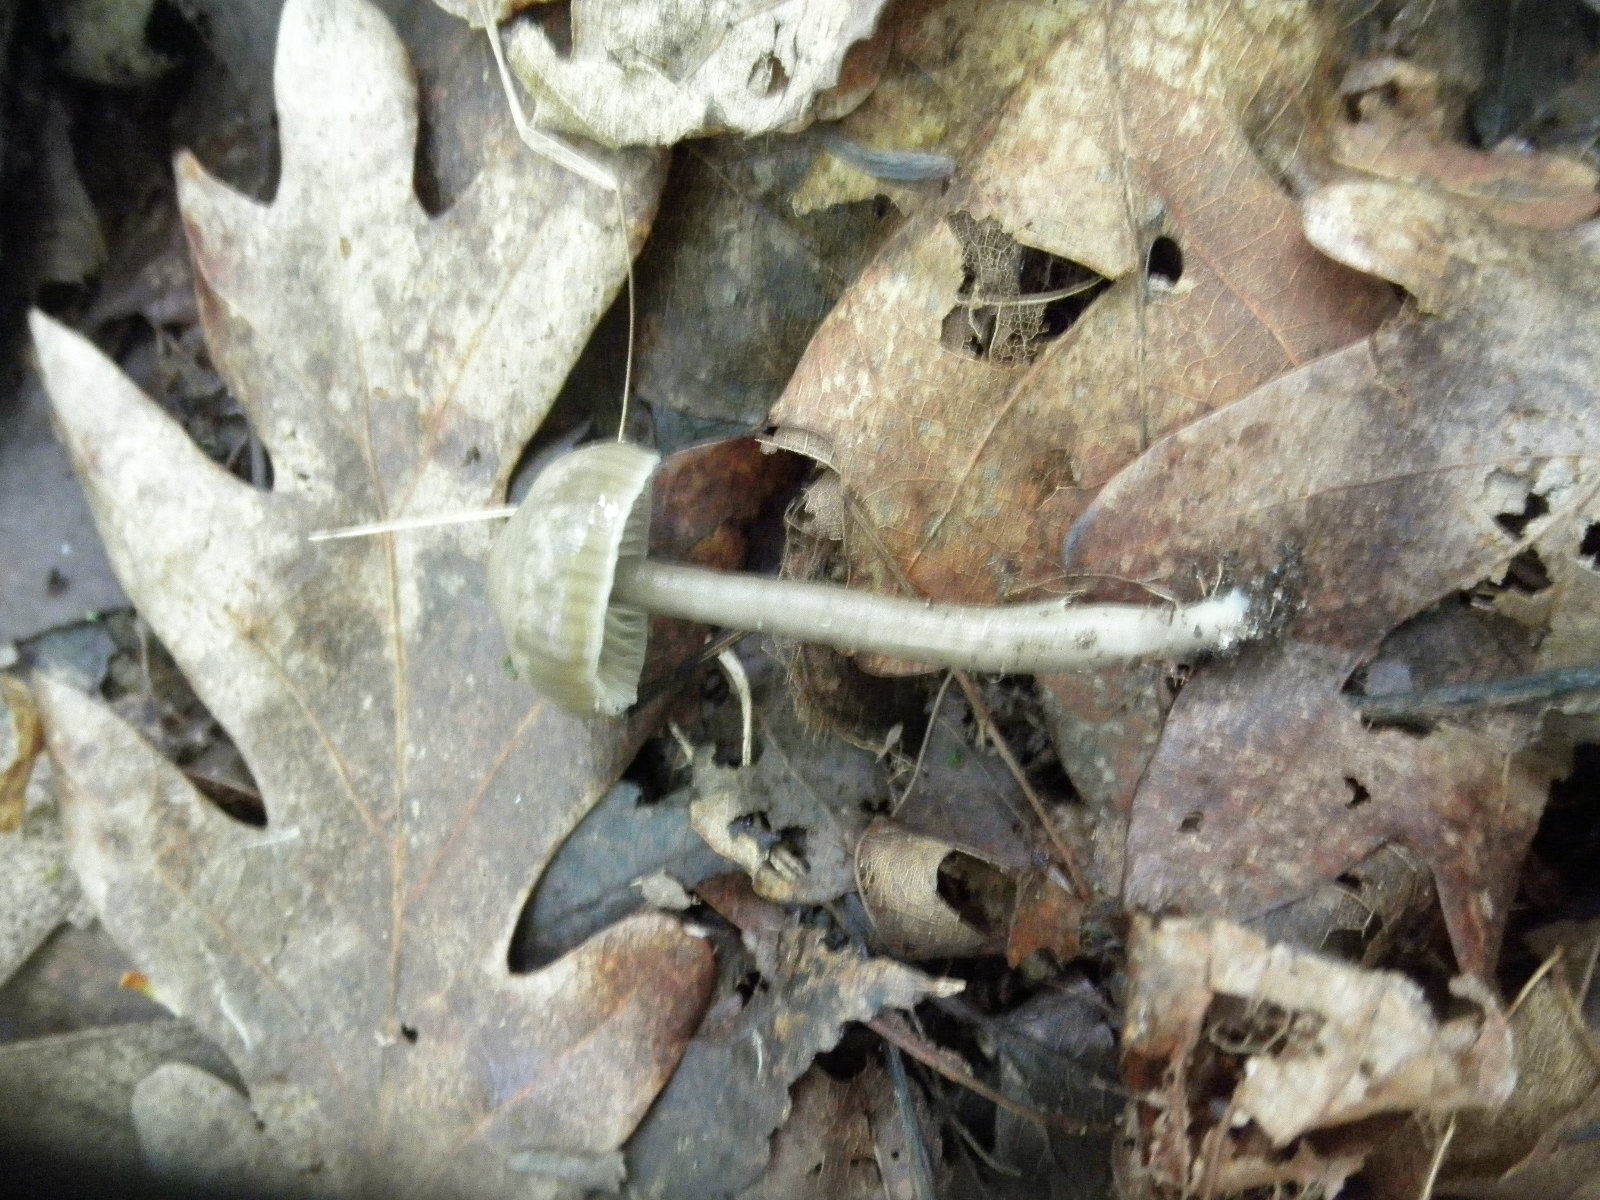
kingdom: Fungi
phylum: Basidiomycota
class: Agaricomycetes
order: Agaricales
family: Hygrophoraceae
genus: Gliophorus
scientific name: Gliophorus irrigatus
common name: Slimy waxcap
